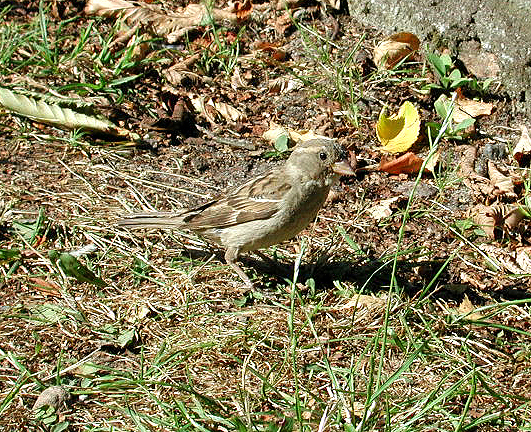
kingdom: Animalia
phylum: Chordata
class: Aves
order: Passeriformes
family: Passeridae
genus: Passer
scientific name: Passer domesticus
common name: House sparrow
